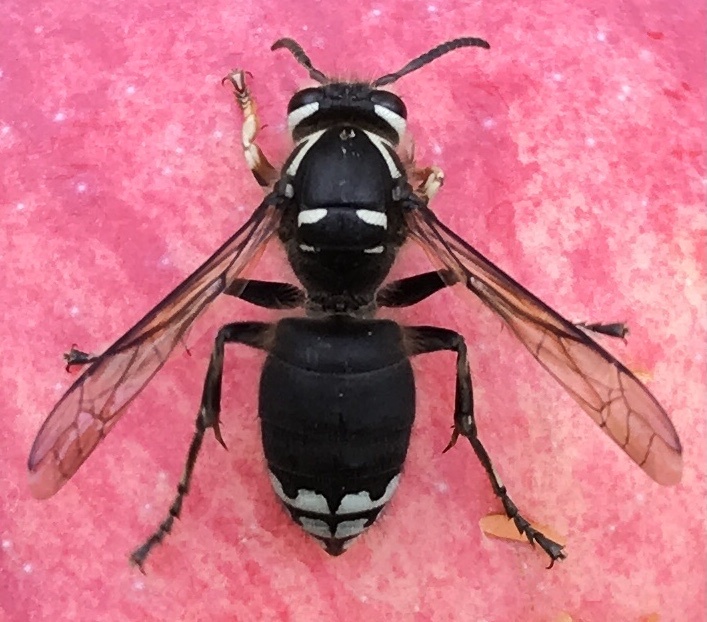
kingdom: Animalia
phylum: Arthropoda
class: Insecta
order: Hymenoptera
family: Vespidae
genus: Dolichovespula
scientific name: Dolichovespula maculata
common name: Bald-faced hornet
